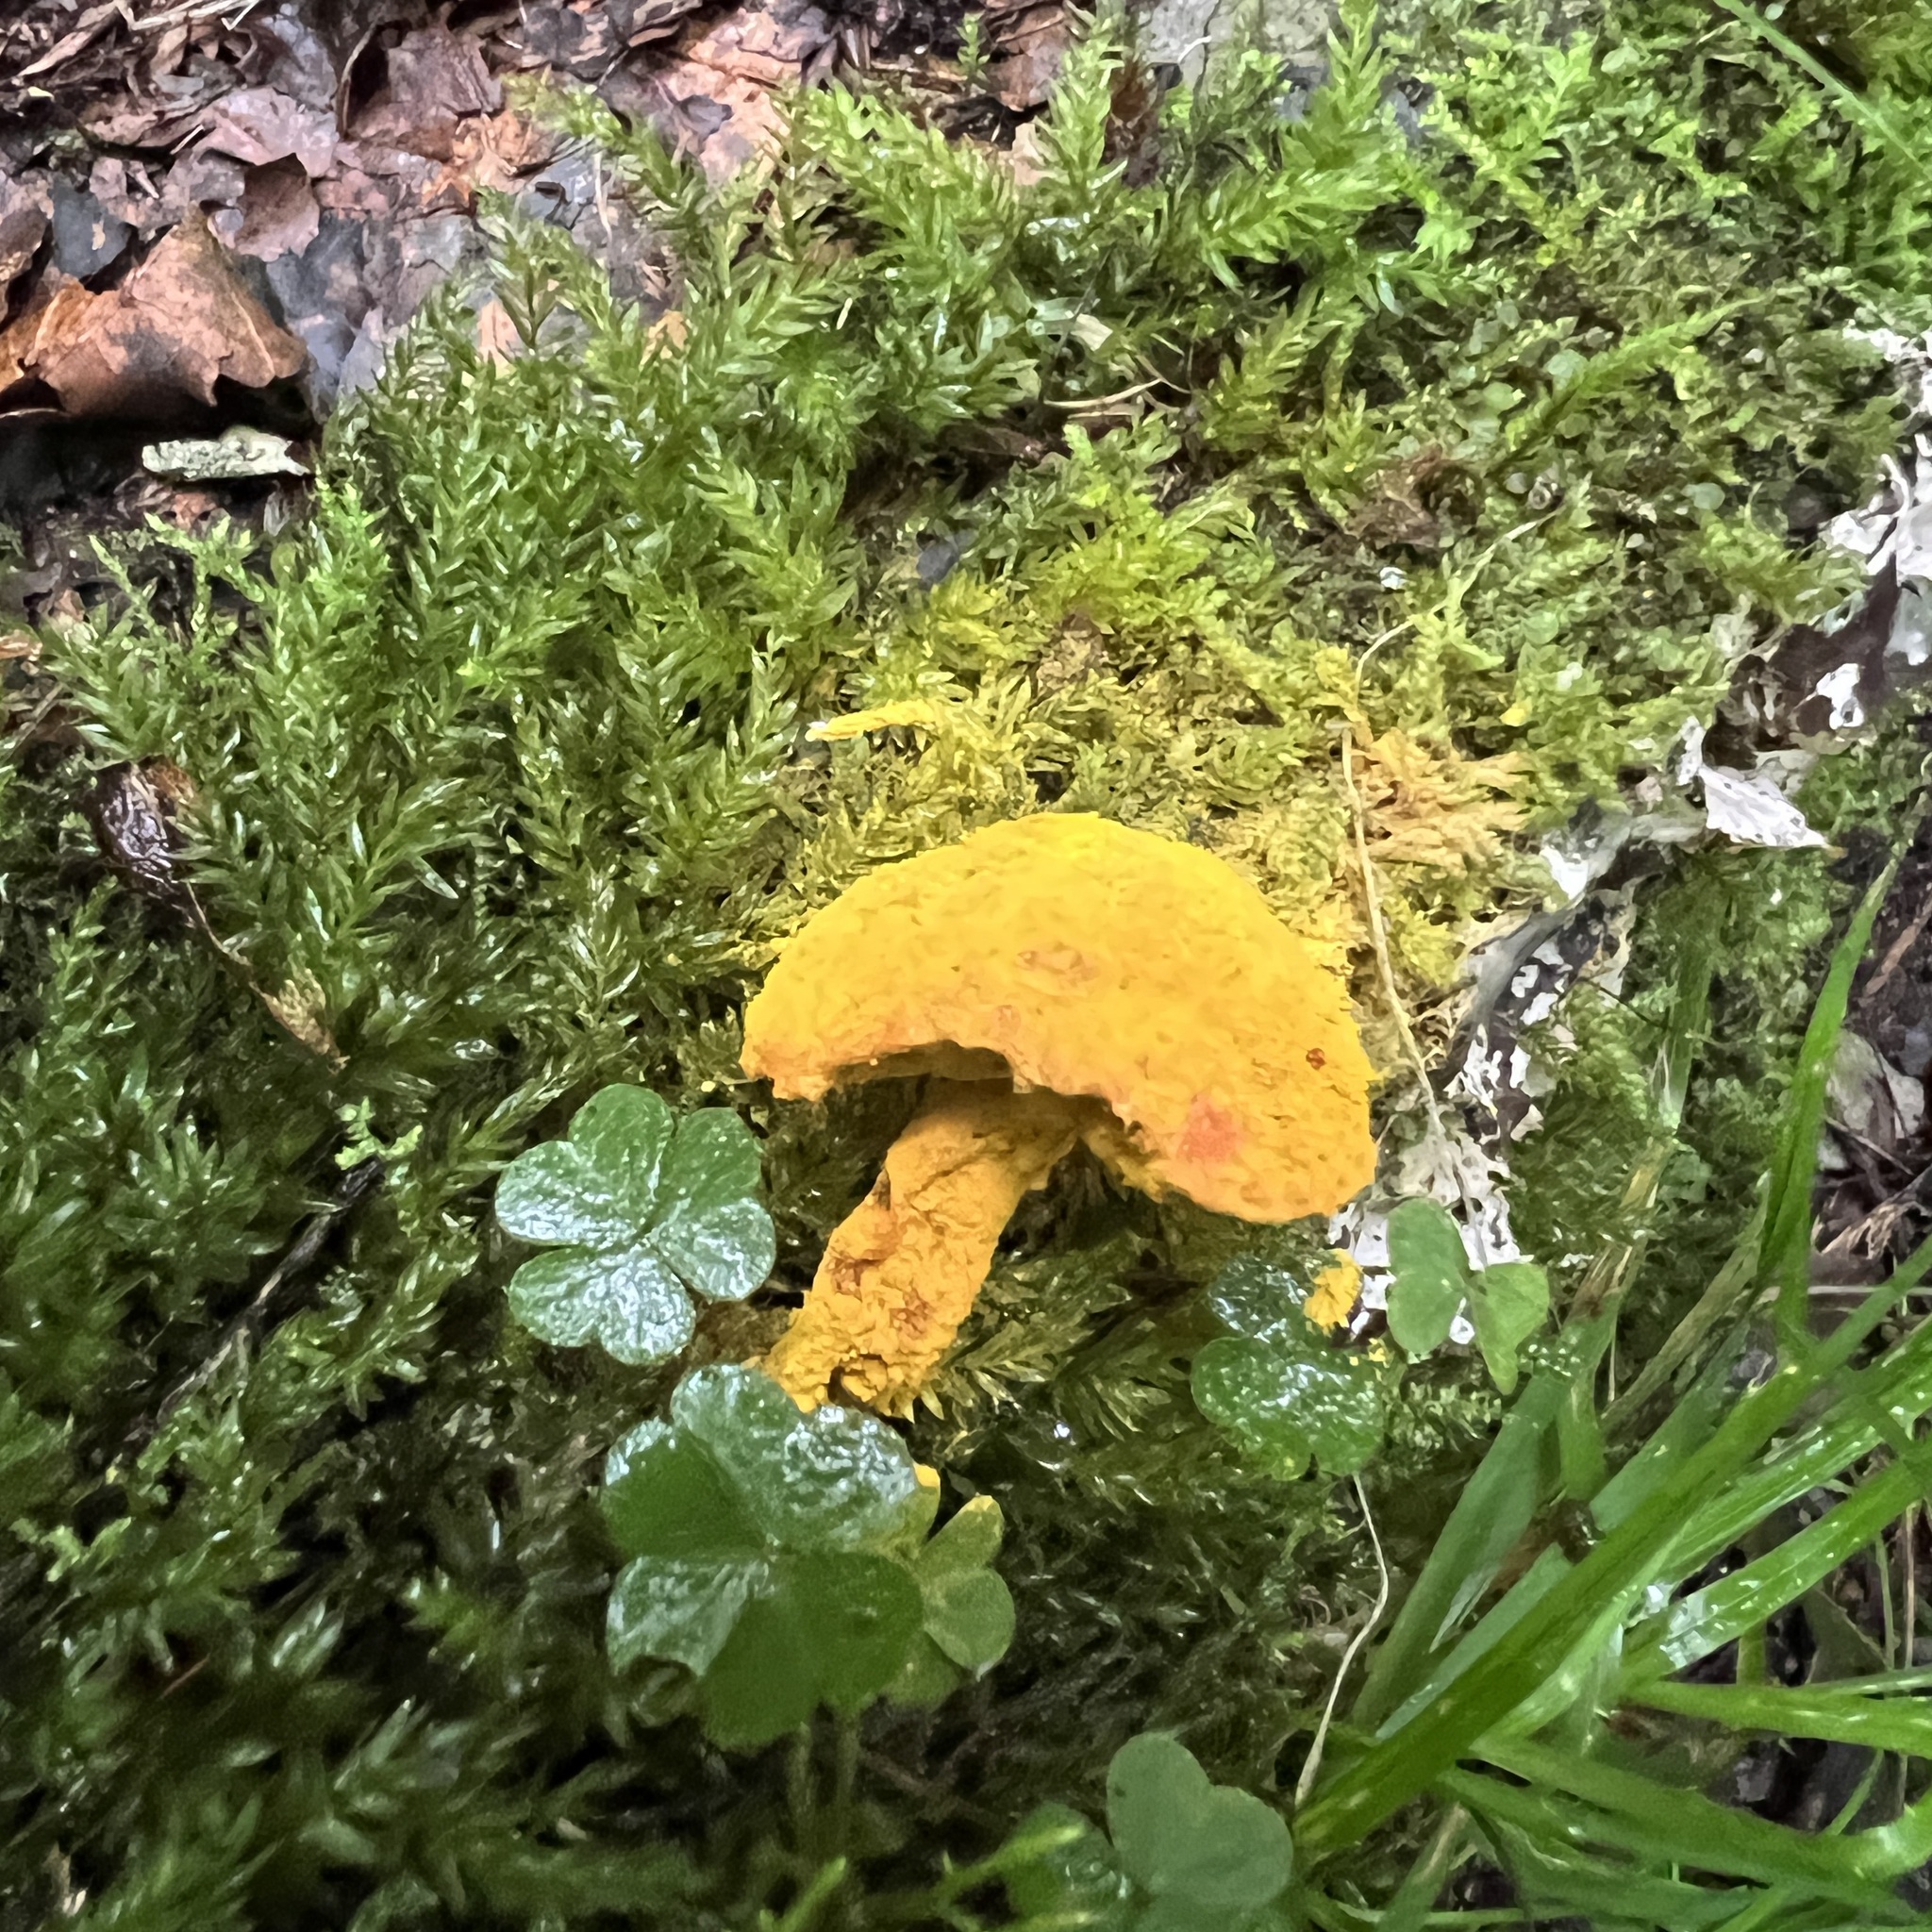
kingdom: Fungi
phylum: Ascomycota
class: Sordariomycetes
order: Hypocreales
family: Hypocreaceae
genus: Hypomyces
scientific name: Hypomyces chrysospermus
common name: Bolete mould
